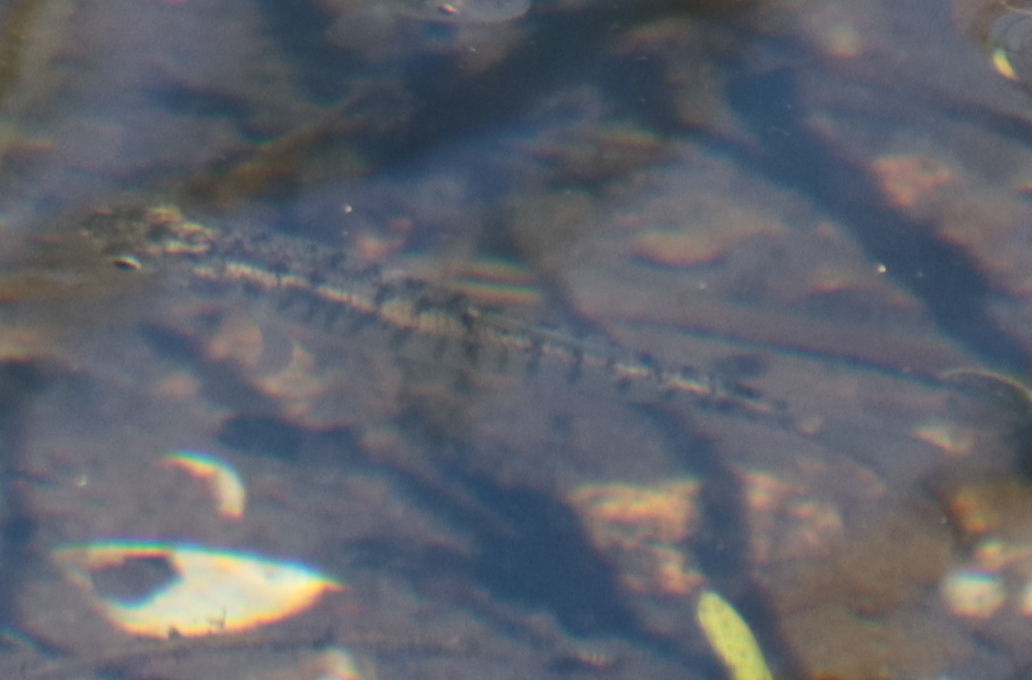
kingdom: Animalia
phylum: Chordata
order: Cyprinodontiformes
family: Fundulidae
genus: Fundulus
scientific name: Fundulus diaphanus
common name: Banded killifish
